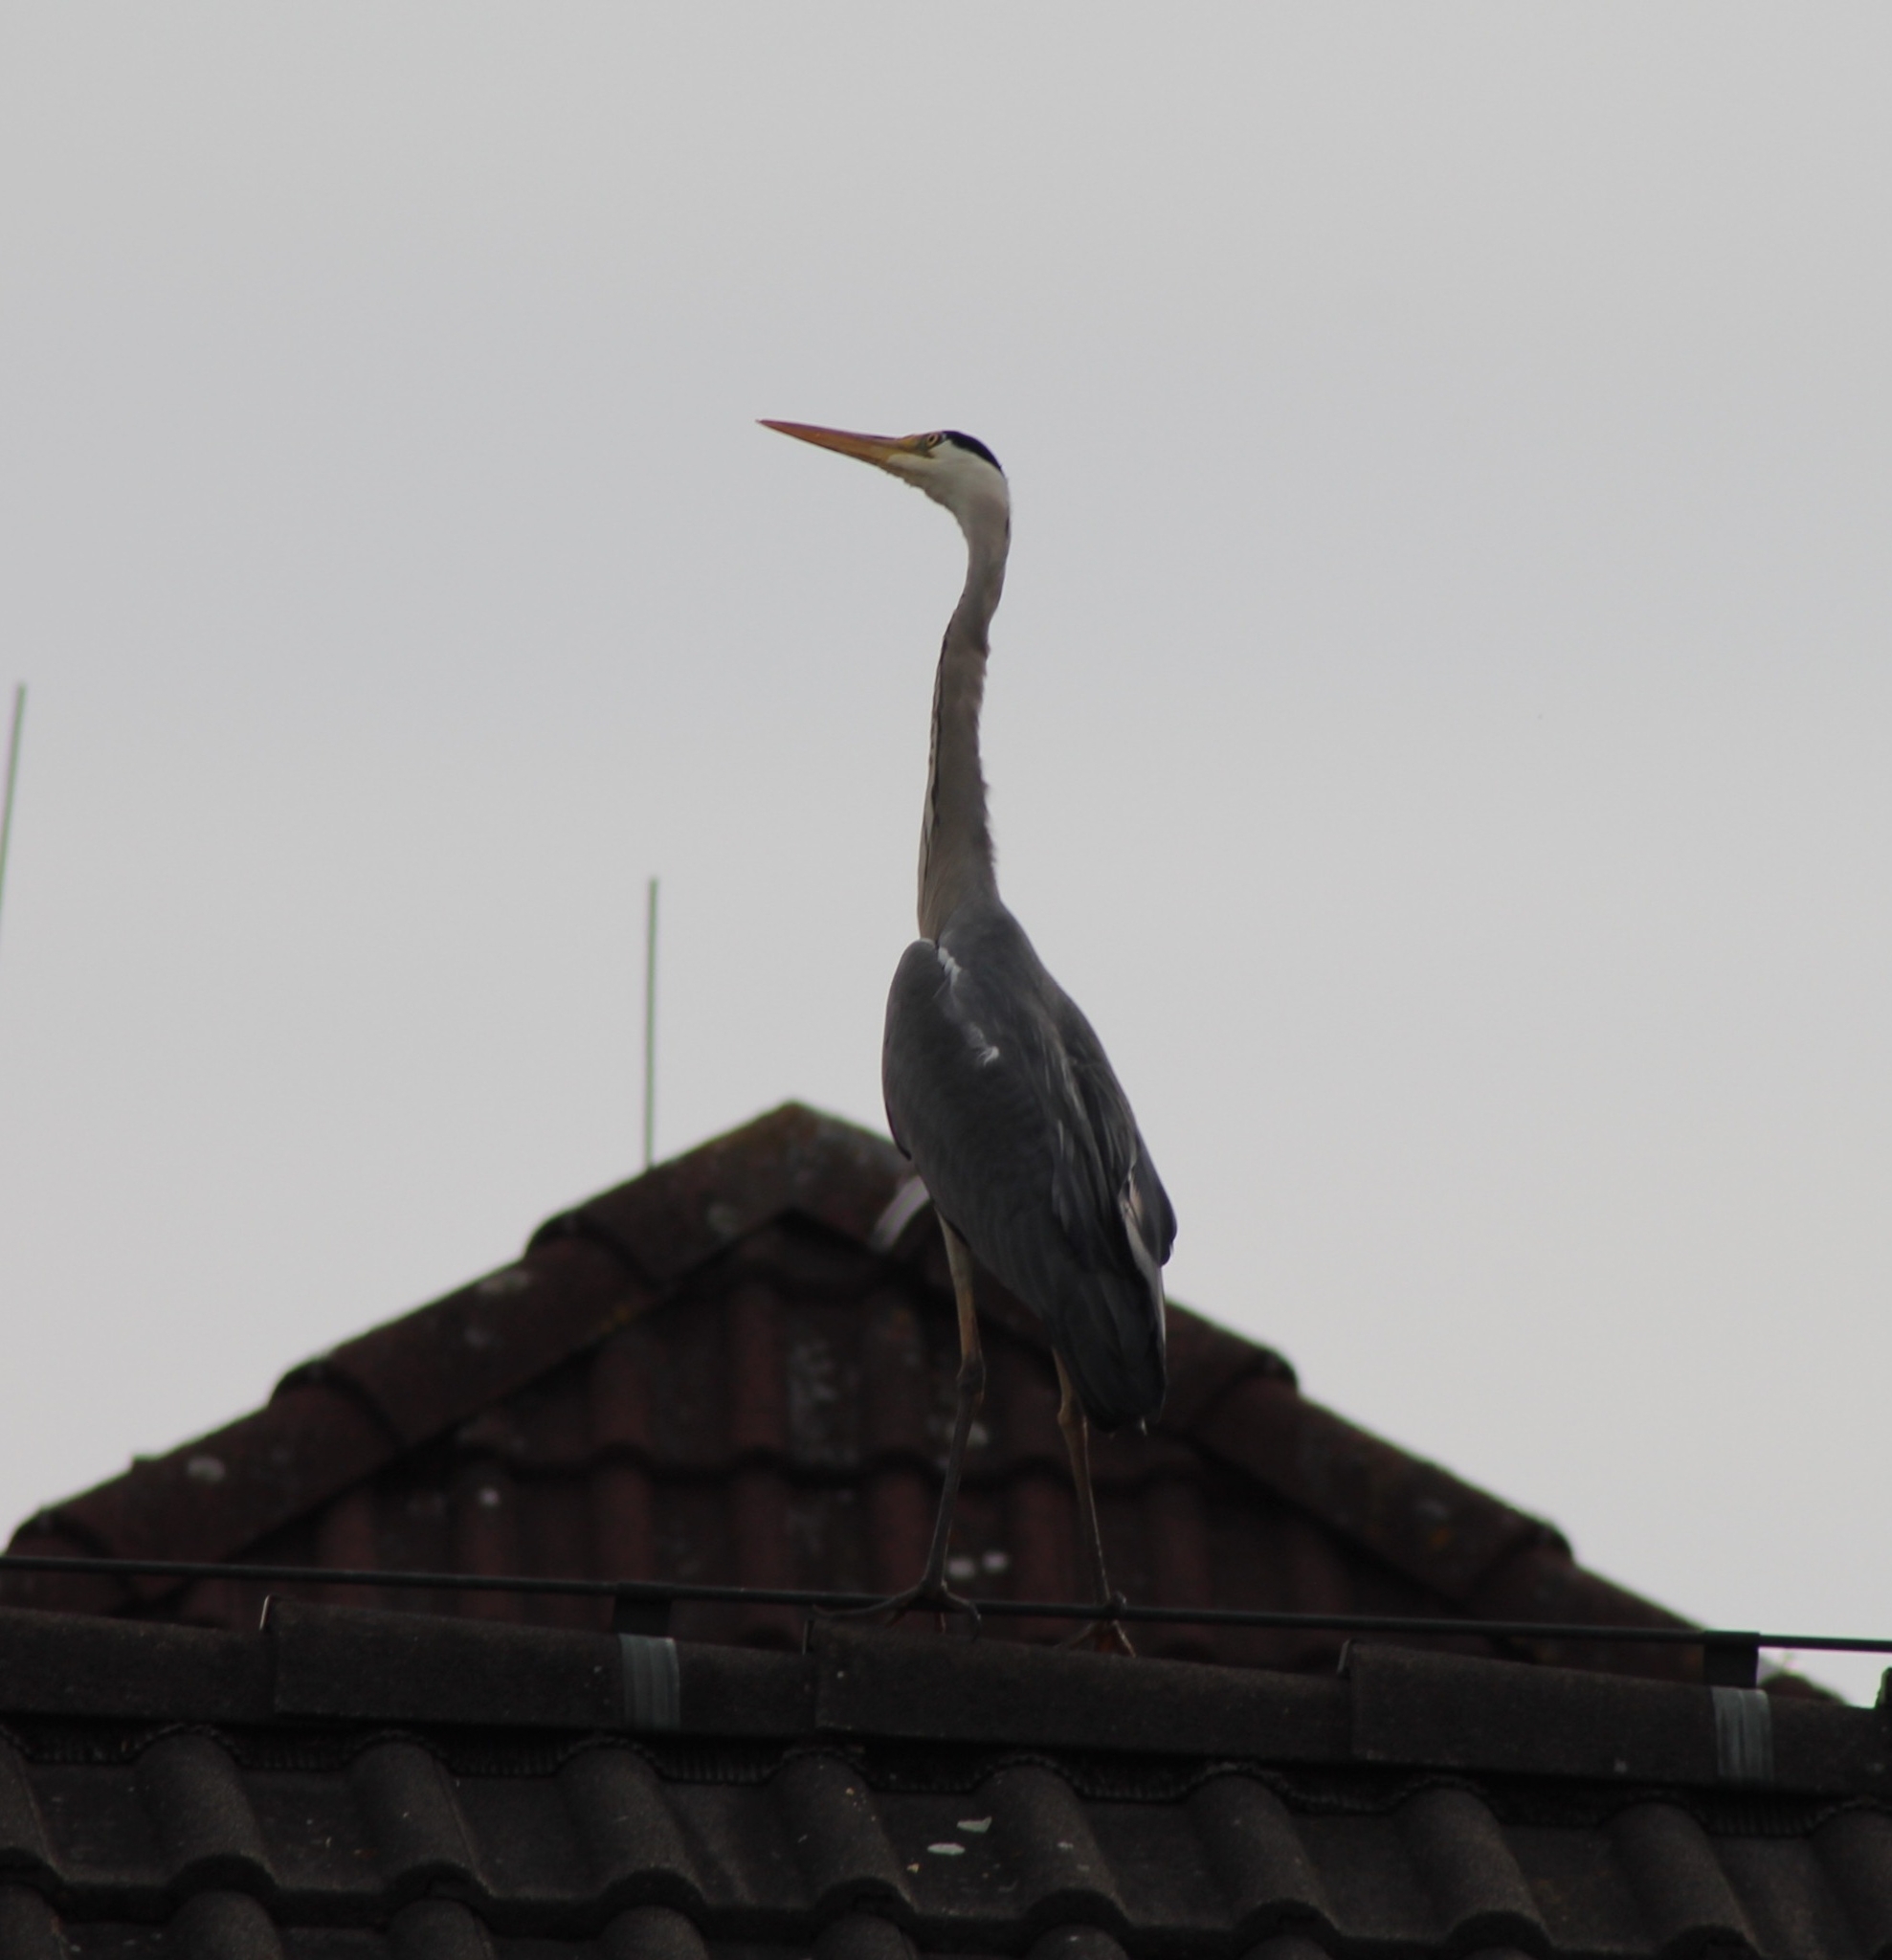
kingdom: Animalia
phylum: Chordata
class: Aves
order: Pelecaniformes
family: Ardeidae
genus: Ardea
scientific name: Ardea cinerea
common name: Grey heron
